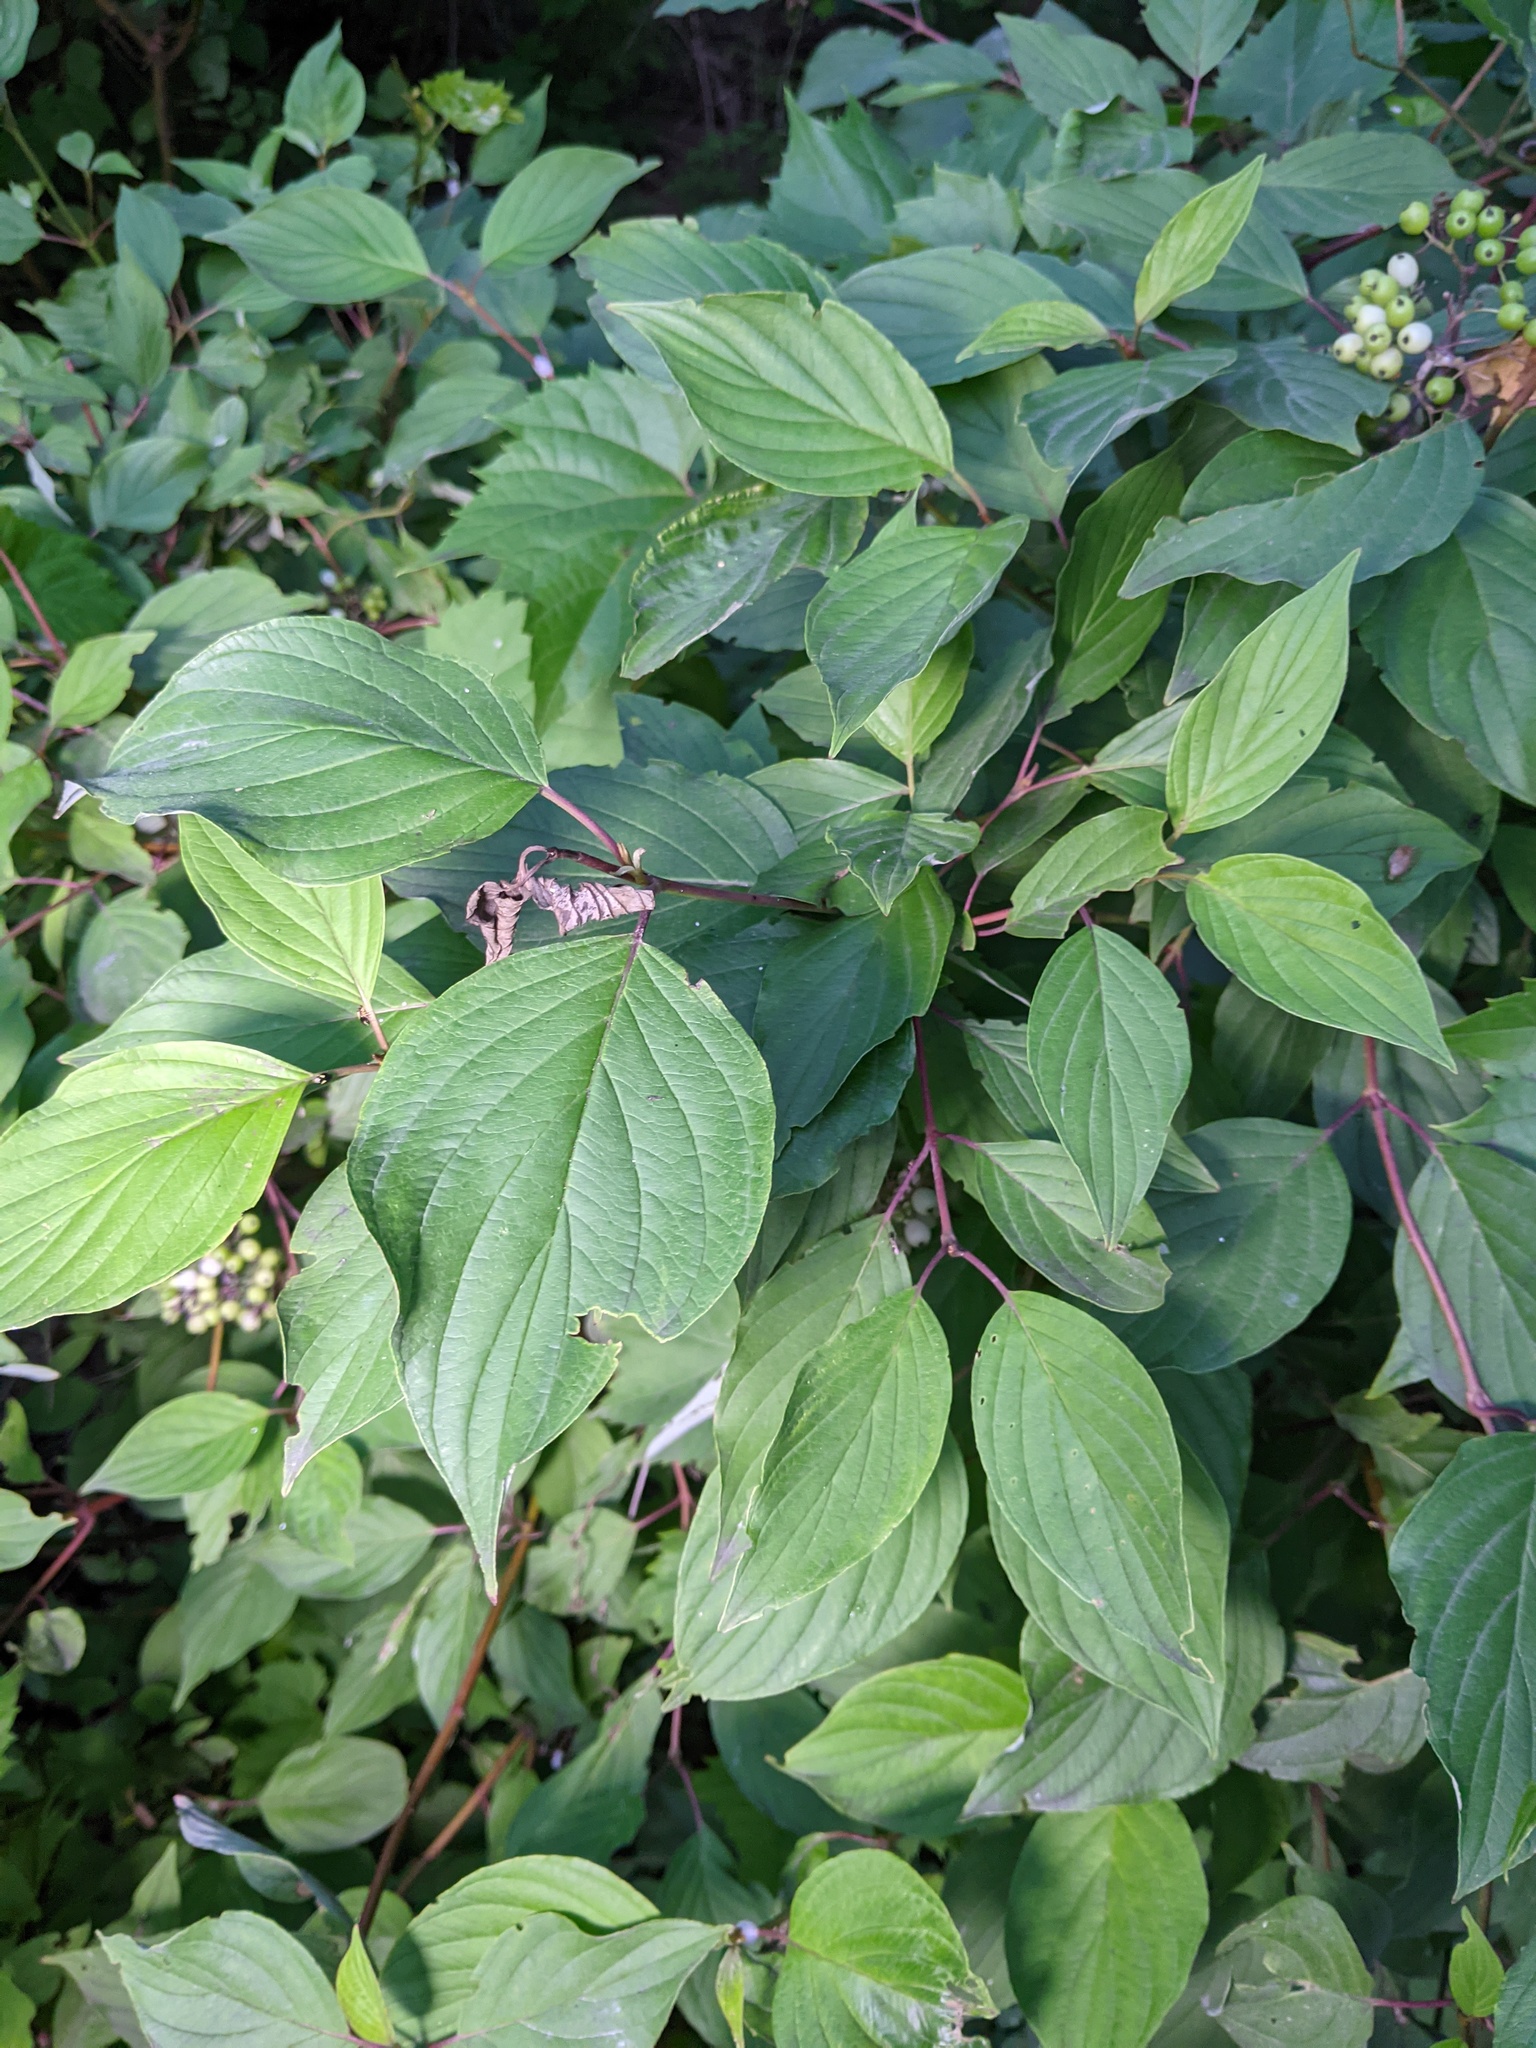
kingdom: Plantae
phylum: Tracheophyta
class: Magnoliopsida
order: Cornales
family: Cornaceae
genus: Cornus
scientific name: Cornus sericea
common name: Red-osier dogwood
